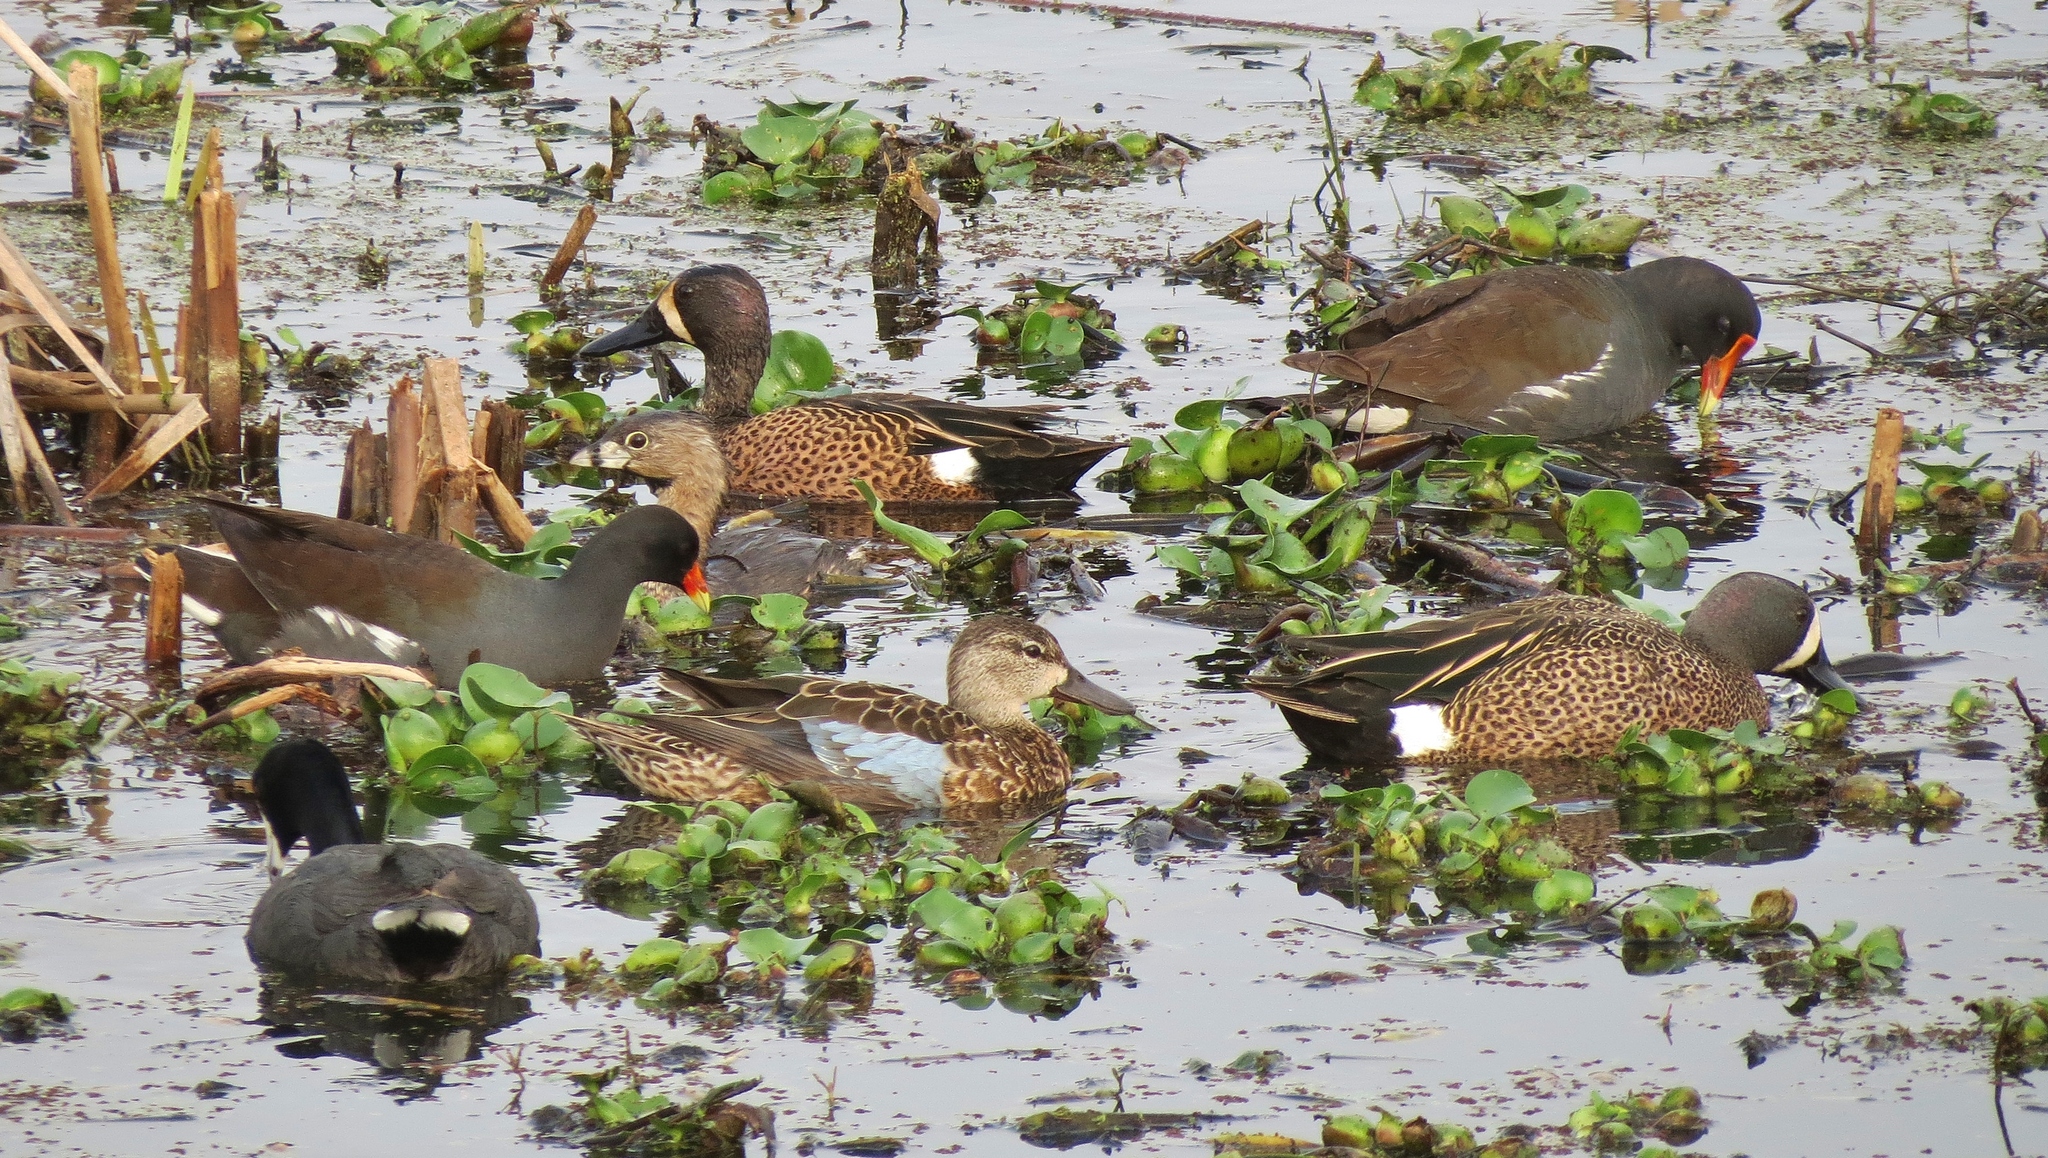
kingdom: Animalia
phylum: Chordata
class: Aves
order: Anseriformes
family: Anatidae
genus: Spatula
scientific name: Spatula discors
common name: Blue-winged teal
